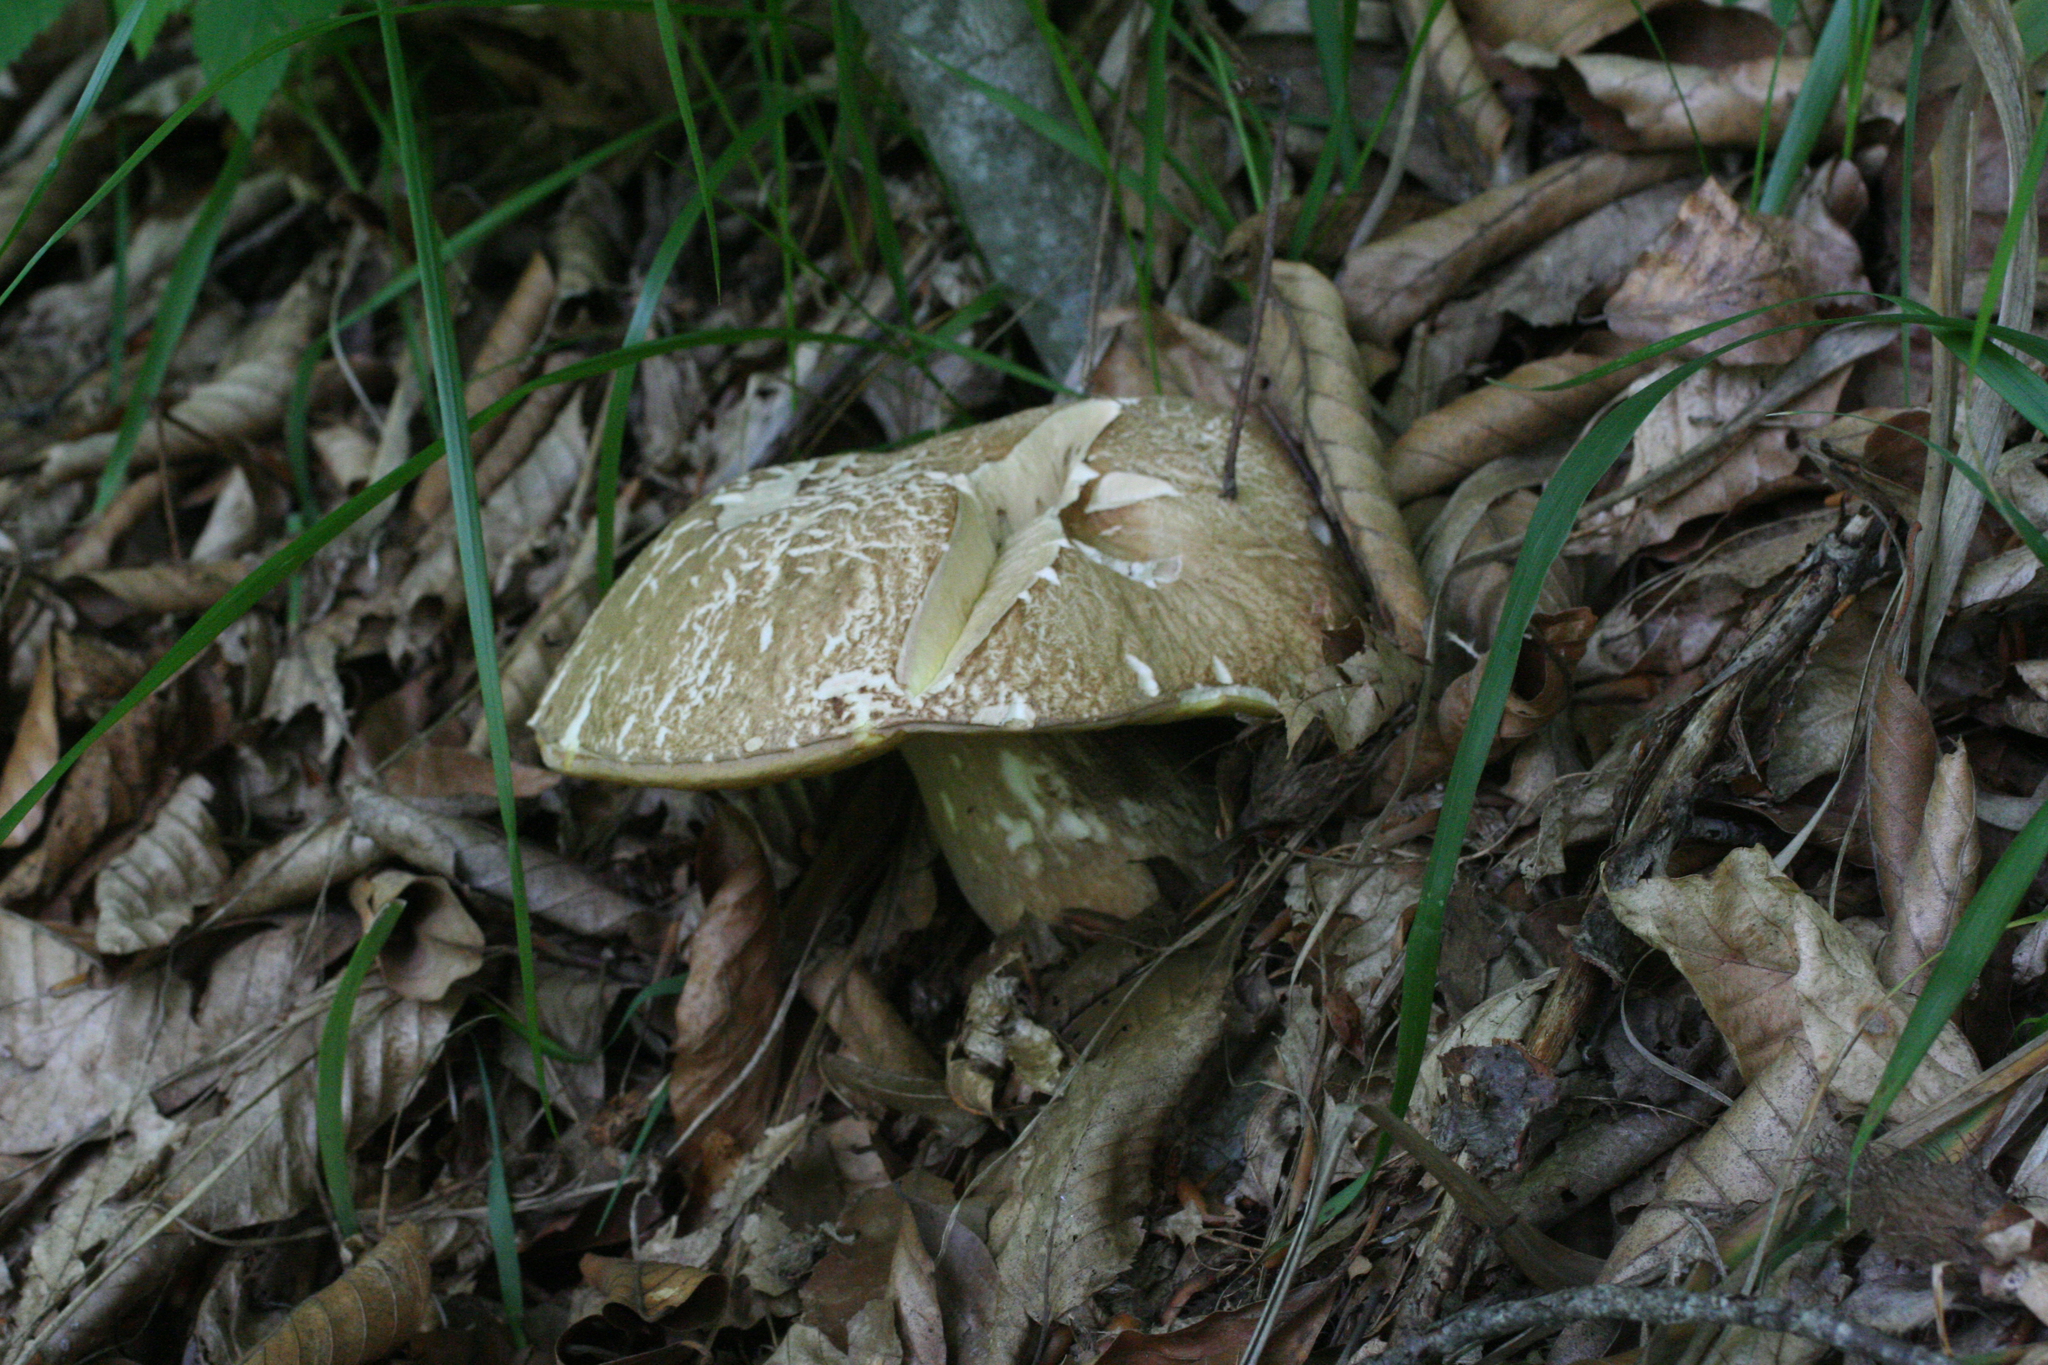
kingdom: Fungi
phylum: Basidiomycota
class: Agaricomycetes
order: Boletales
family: Boletaceae
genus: Boletus
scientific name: Boletus reticulatus
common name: Summer bolete
